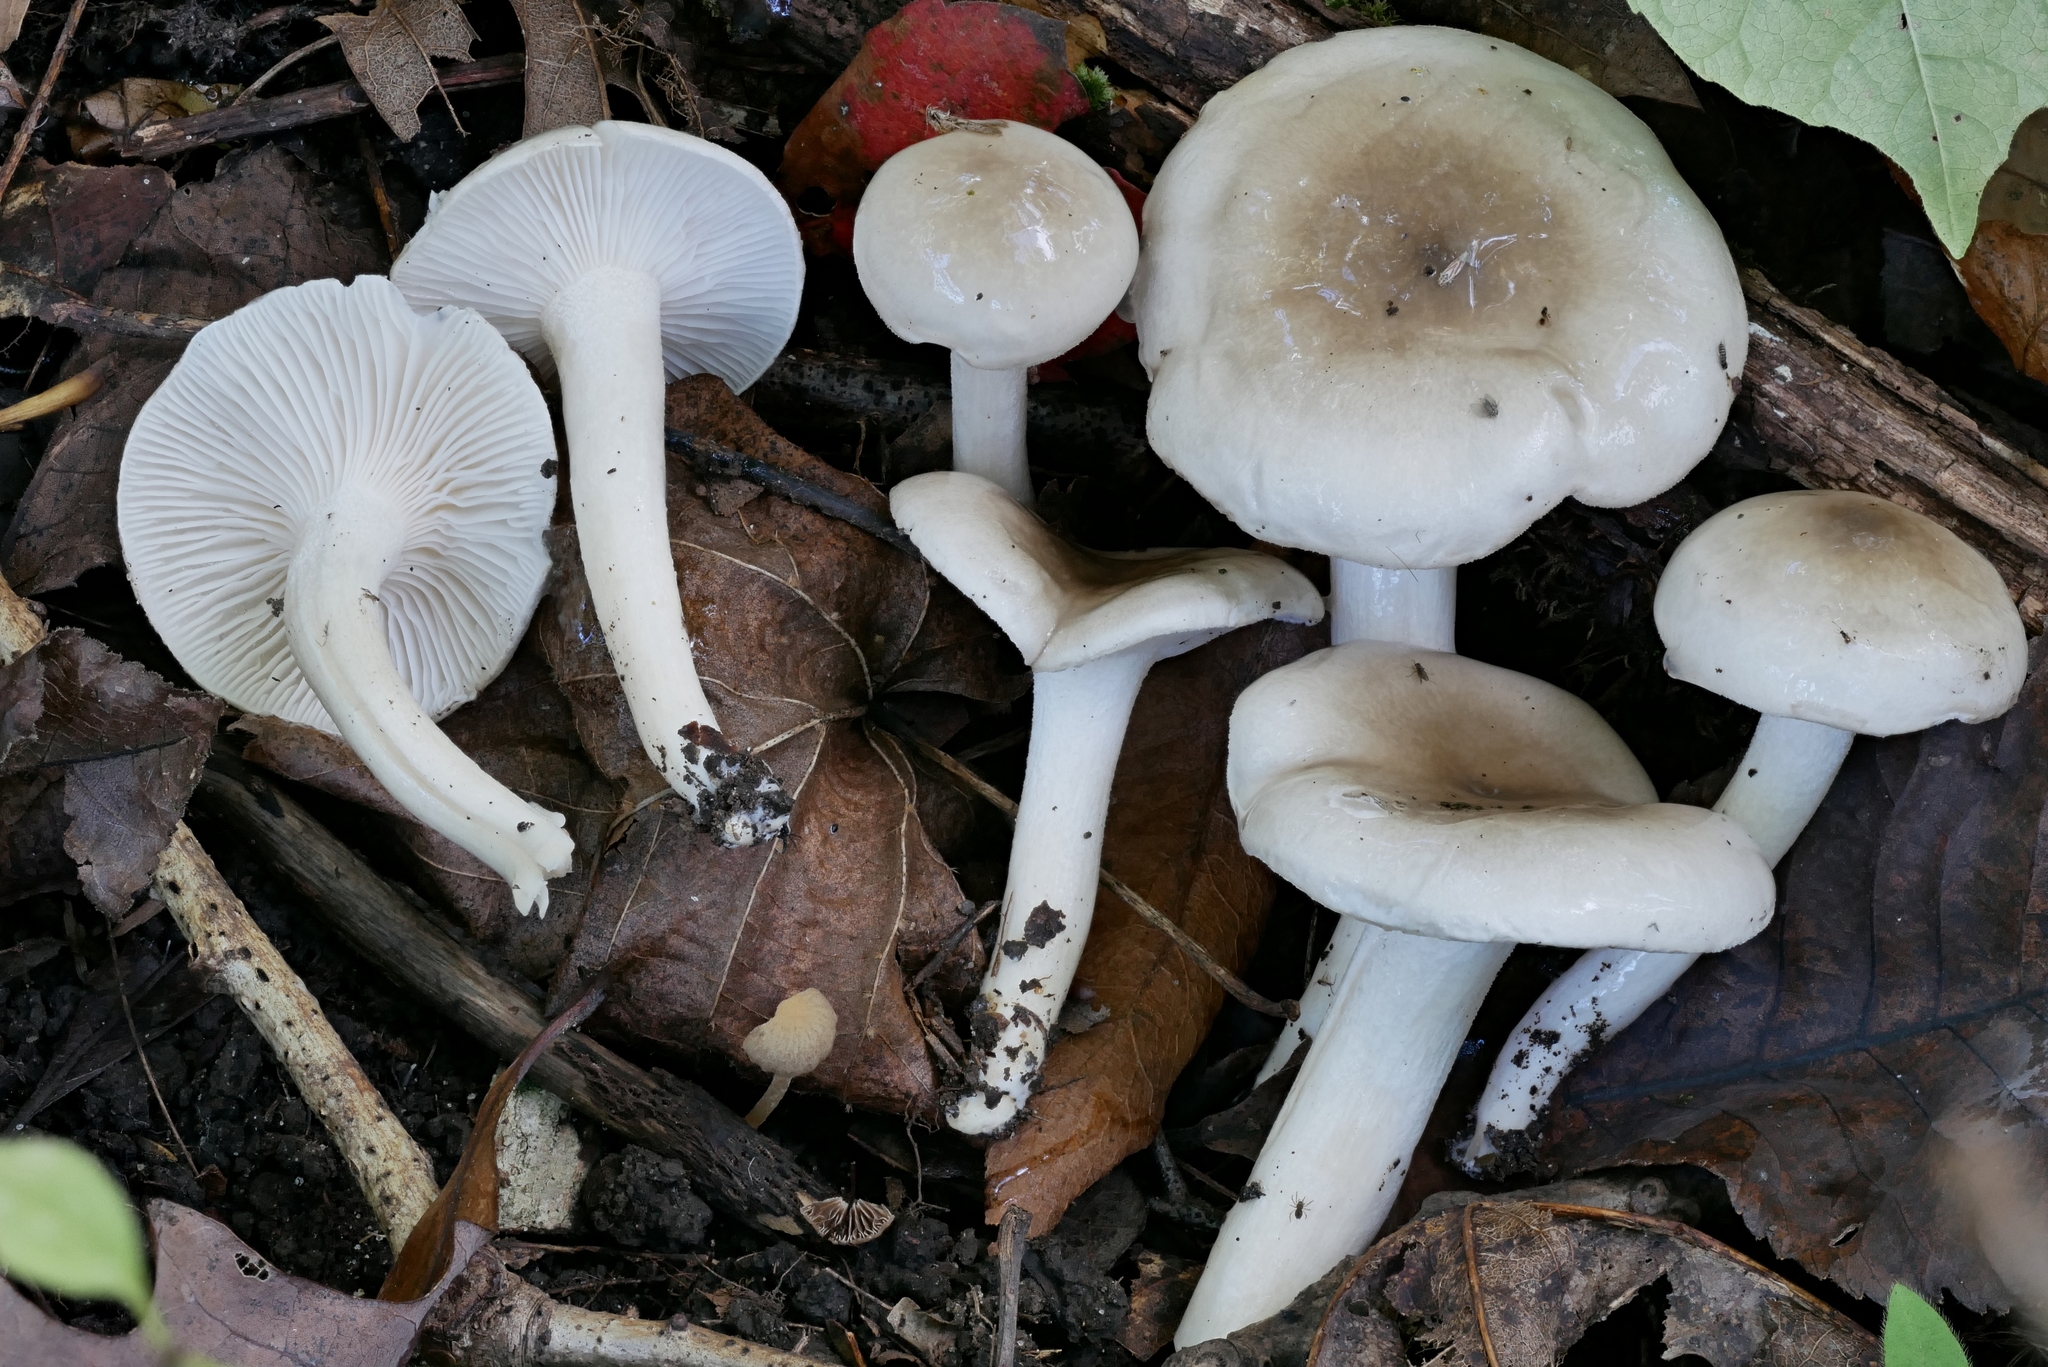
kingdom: Fungi
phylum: Basidiomycota
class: Agaricomycetes
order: Agaricales
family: Hygrophoraceae
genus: Hygrophorus
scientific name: Hygrophorus occidentalis
